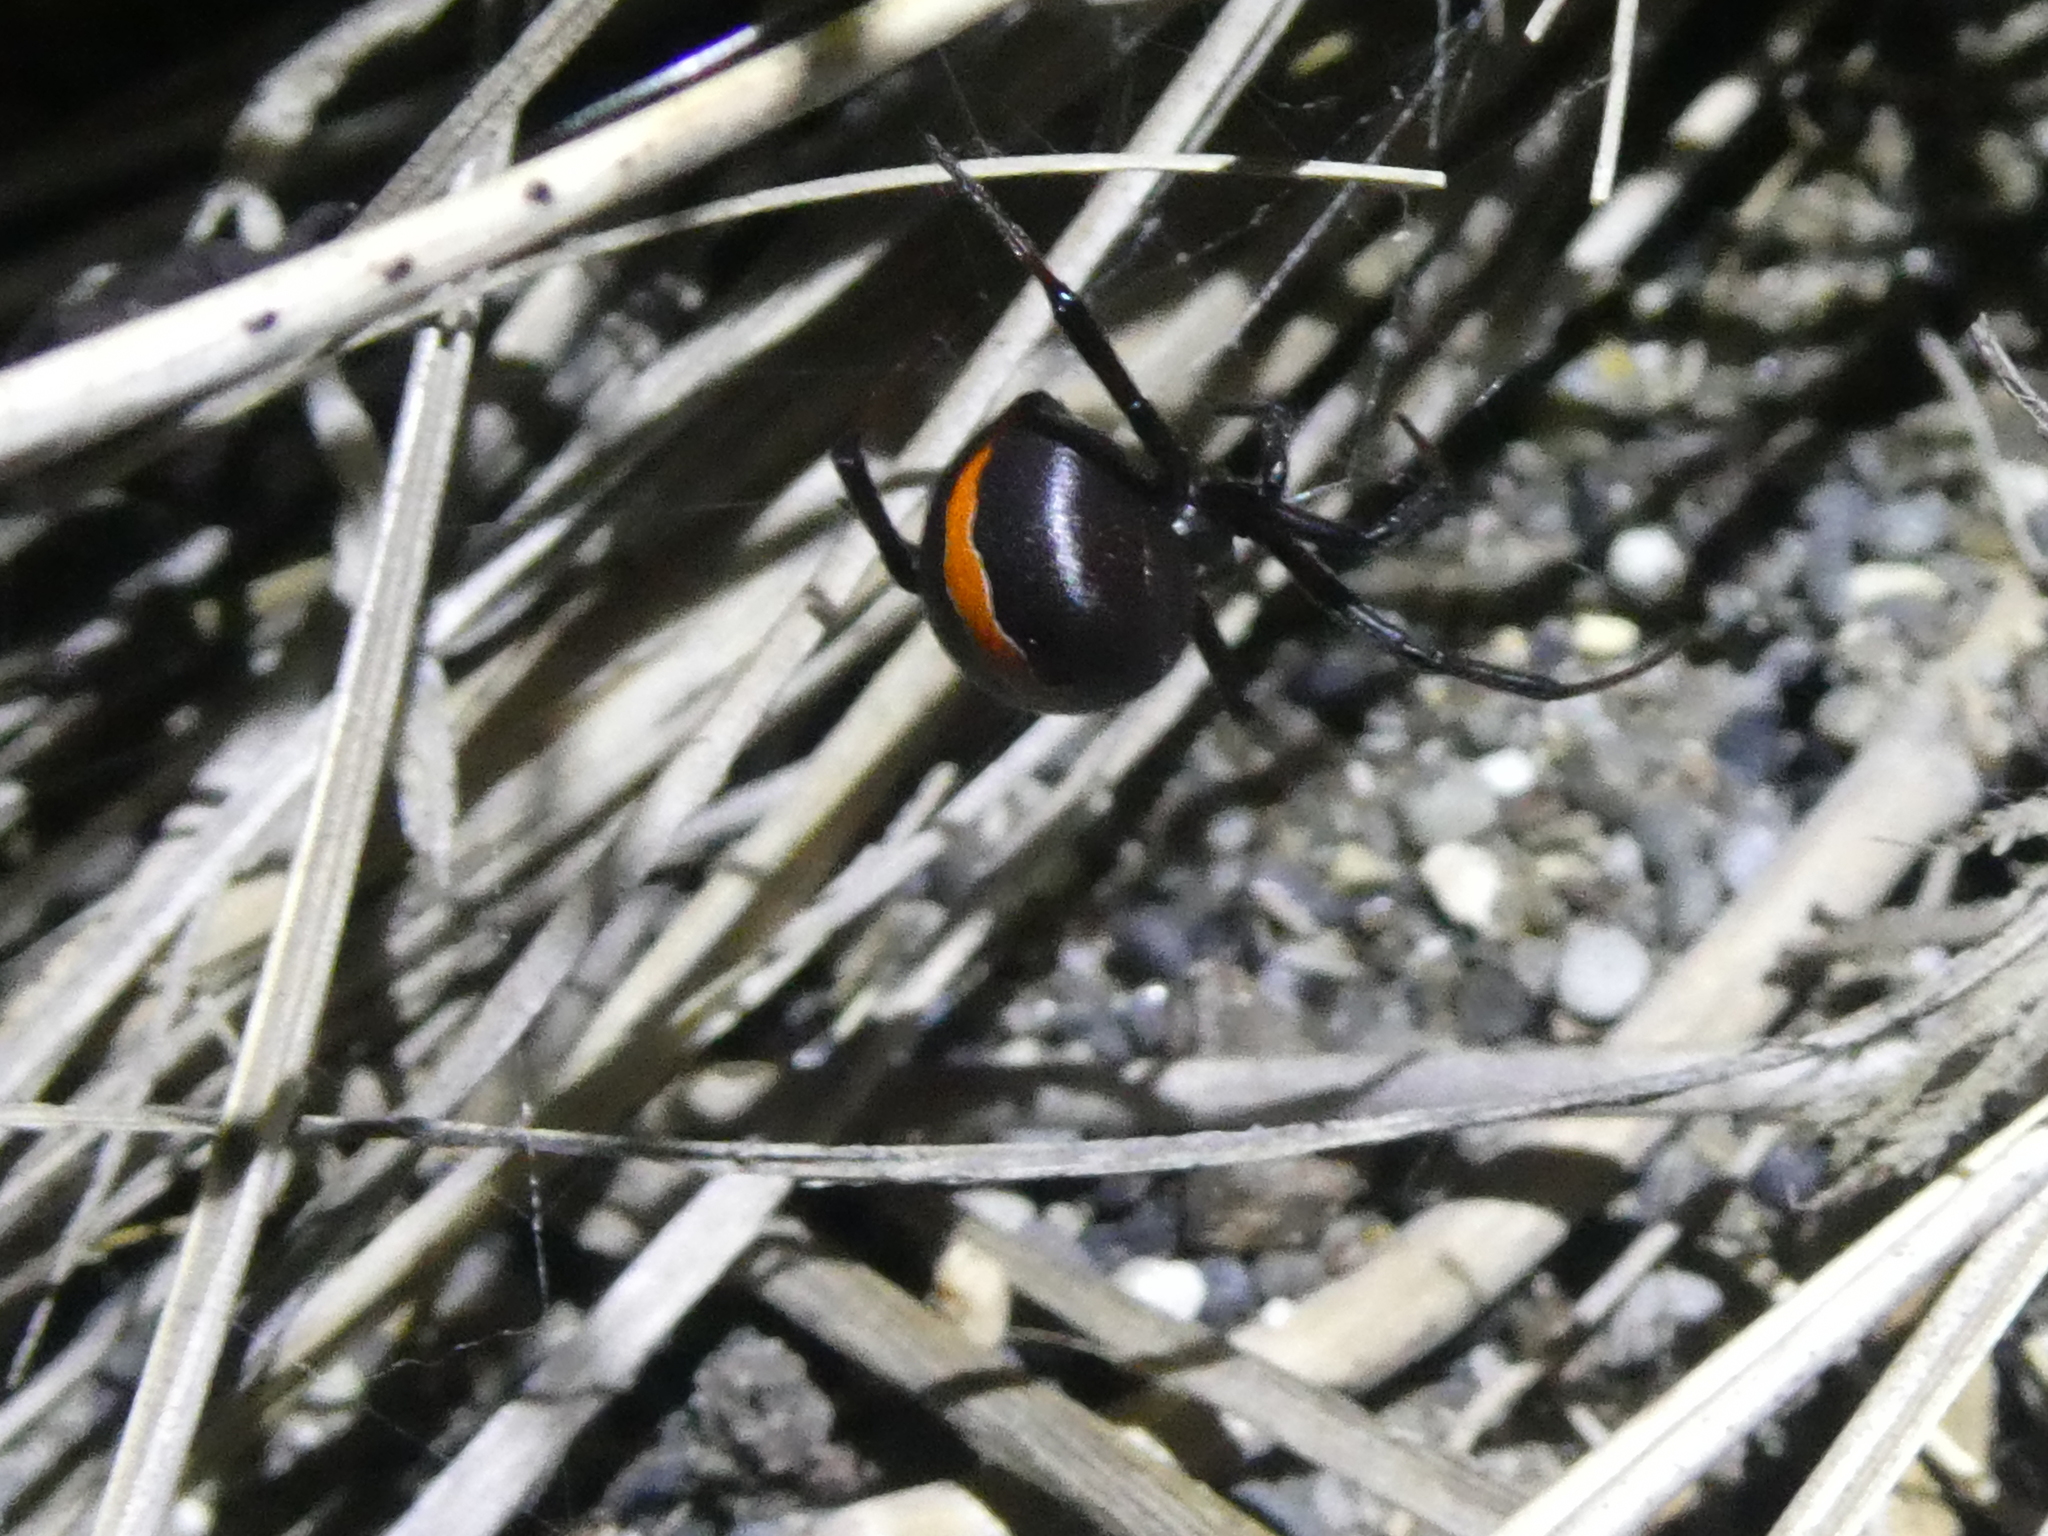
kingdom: Animalia
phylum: Arthropoda
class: Arachnida
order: Araneae
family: Theridiidae
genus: Latrodectus
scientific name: Latrodectus katipo
